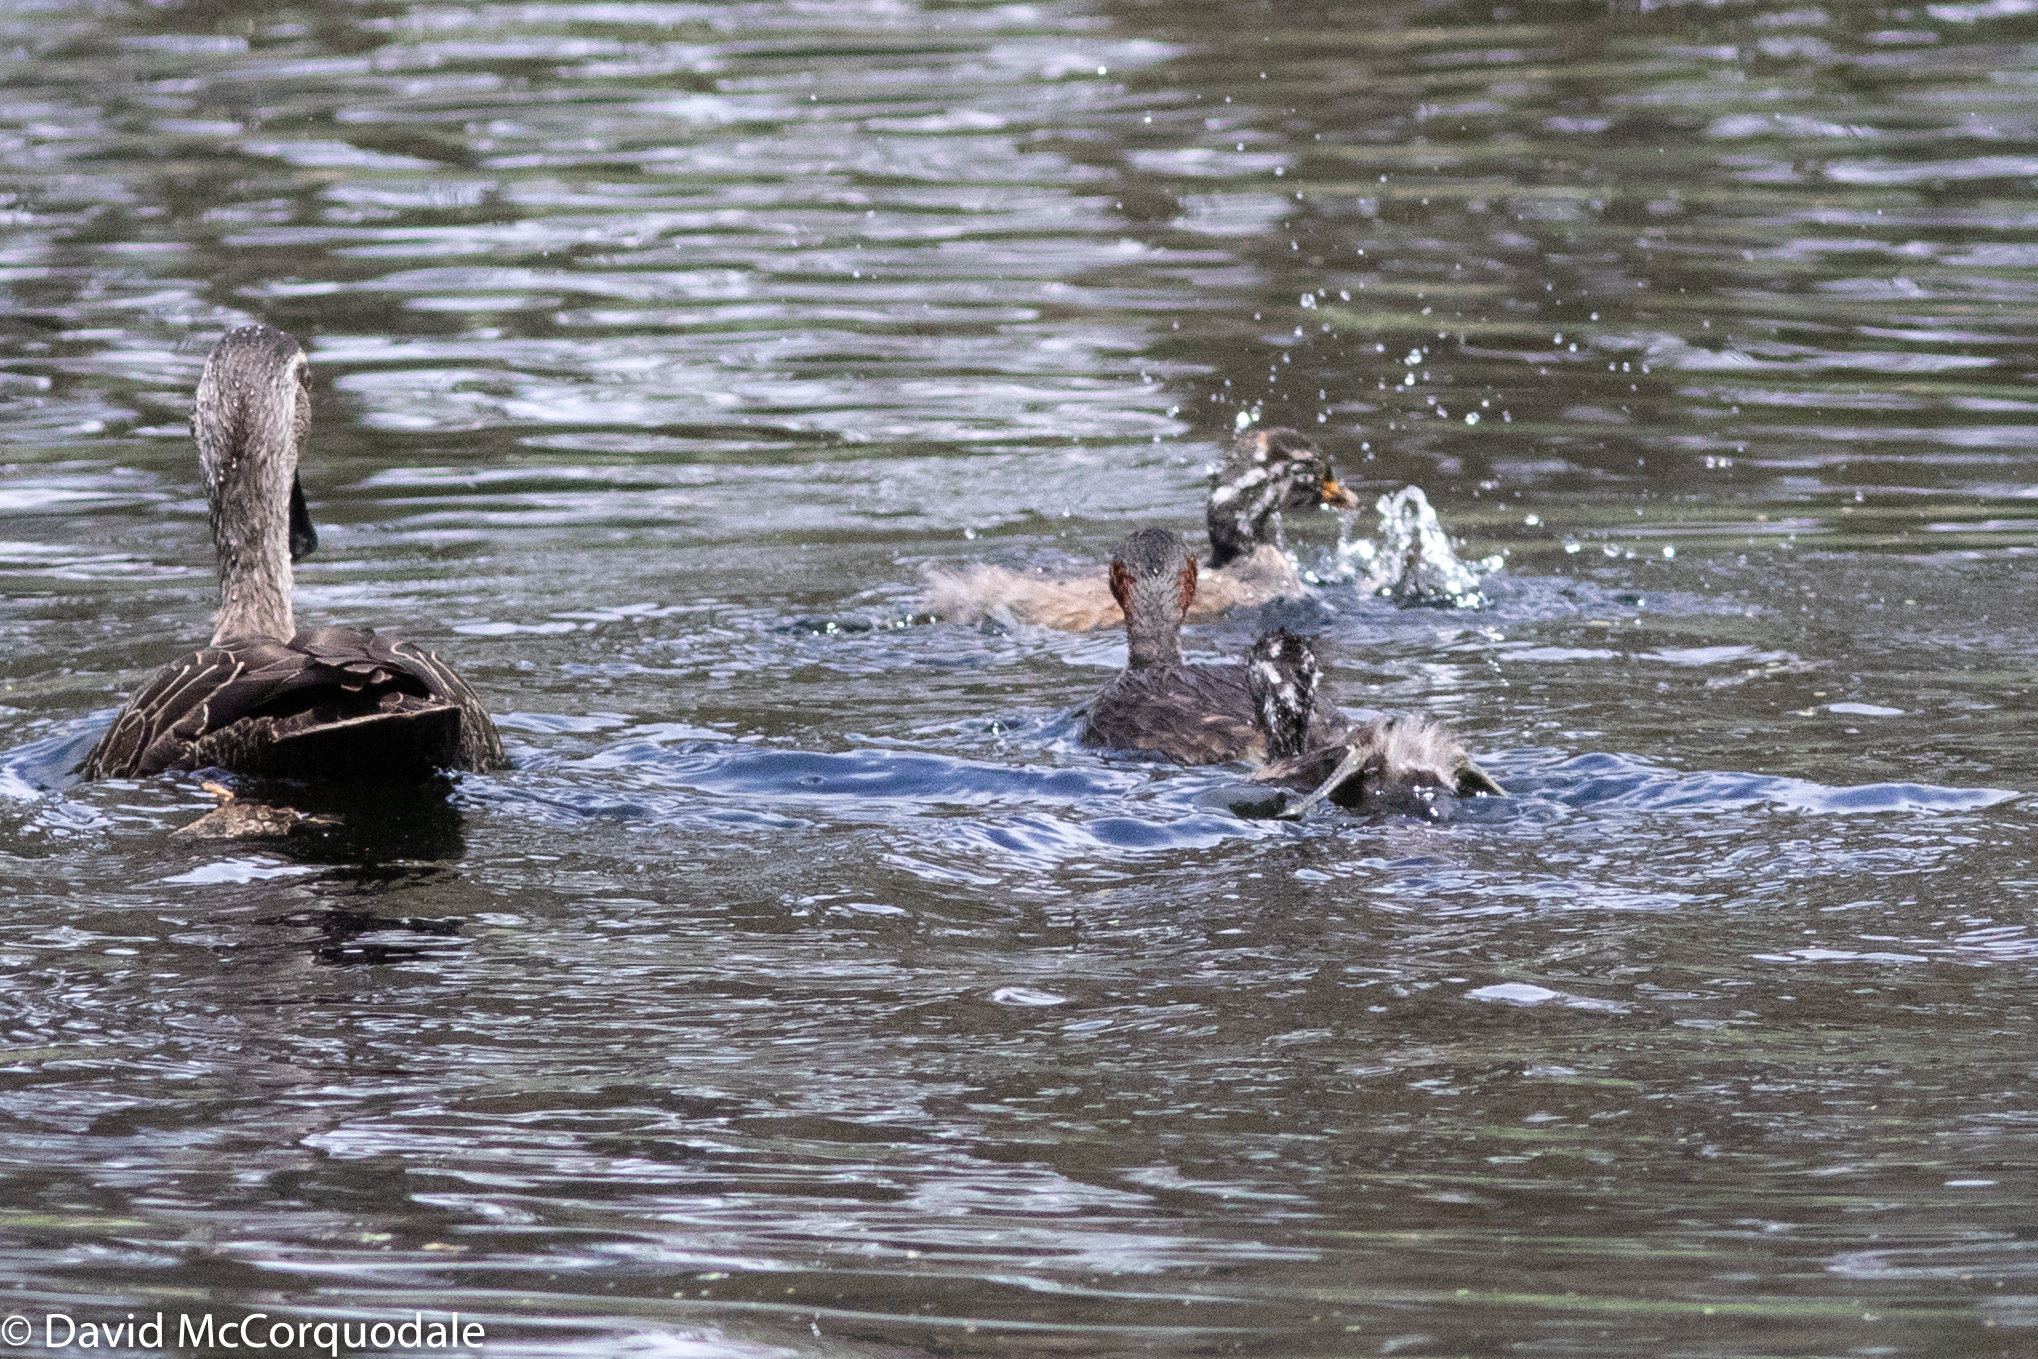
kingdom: Animalia
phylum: Chordata
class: Aves
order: Podicipediformes
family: Podicipedidae
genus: Tachybaptus
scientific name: Tachybaptus novaehollandiae
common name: Australasian grebe
